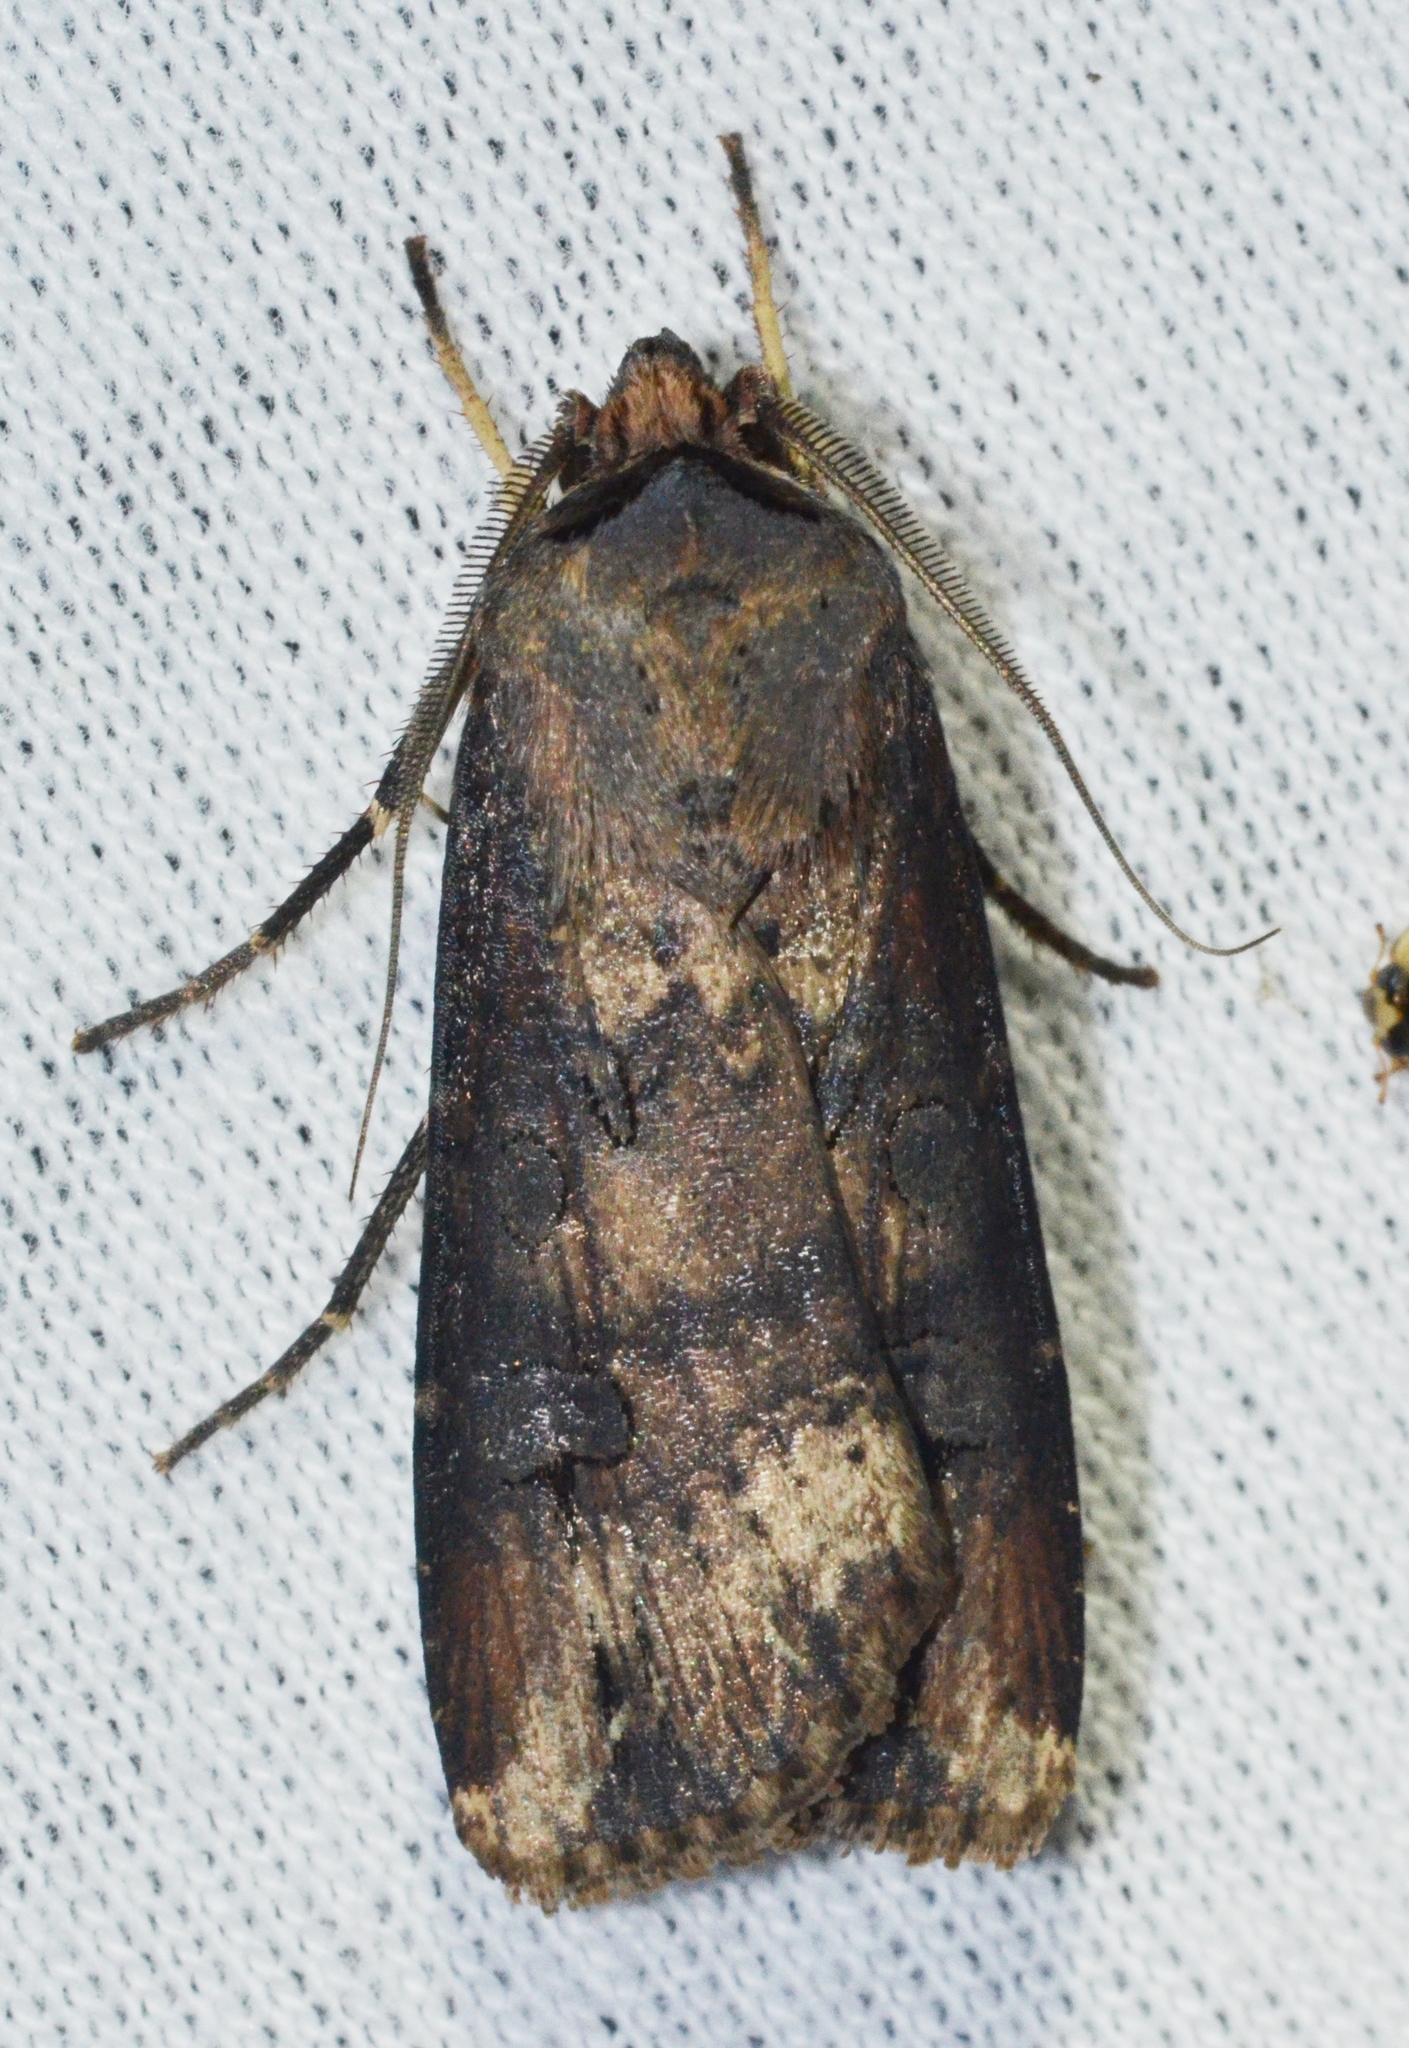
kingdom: Animalia
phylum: Arthropoda
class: Insecta
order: Lepidoptera
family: Noctuidae
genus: Agrotis
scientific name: Agrotis ipsilon
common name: Dark sword-grass
